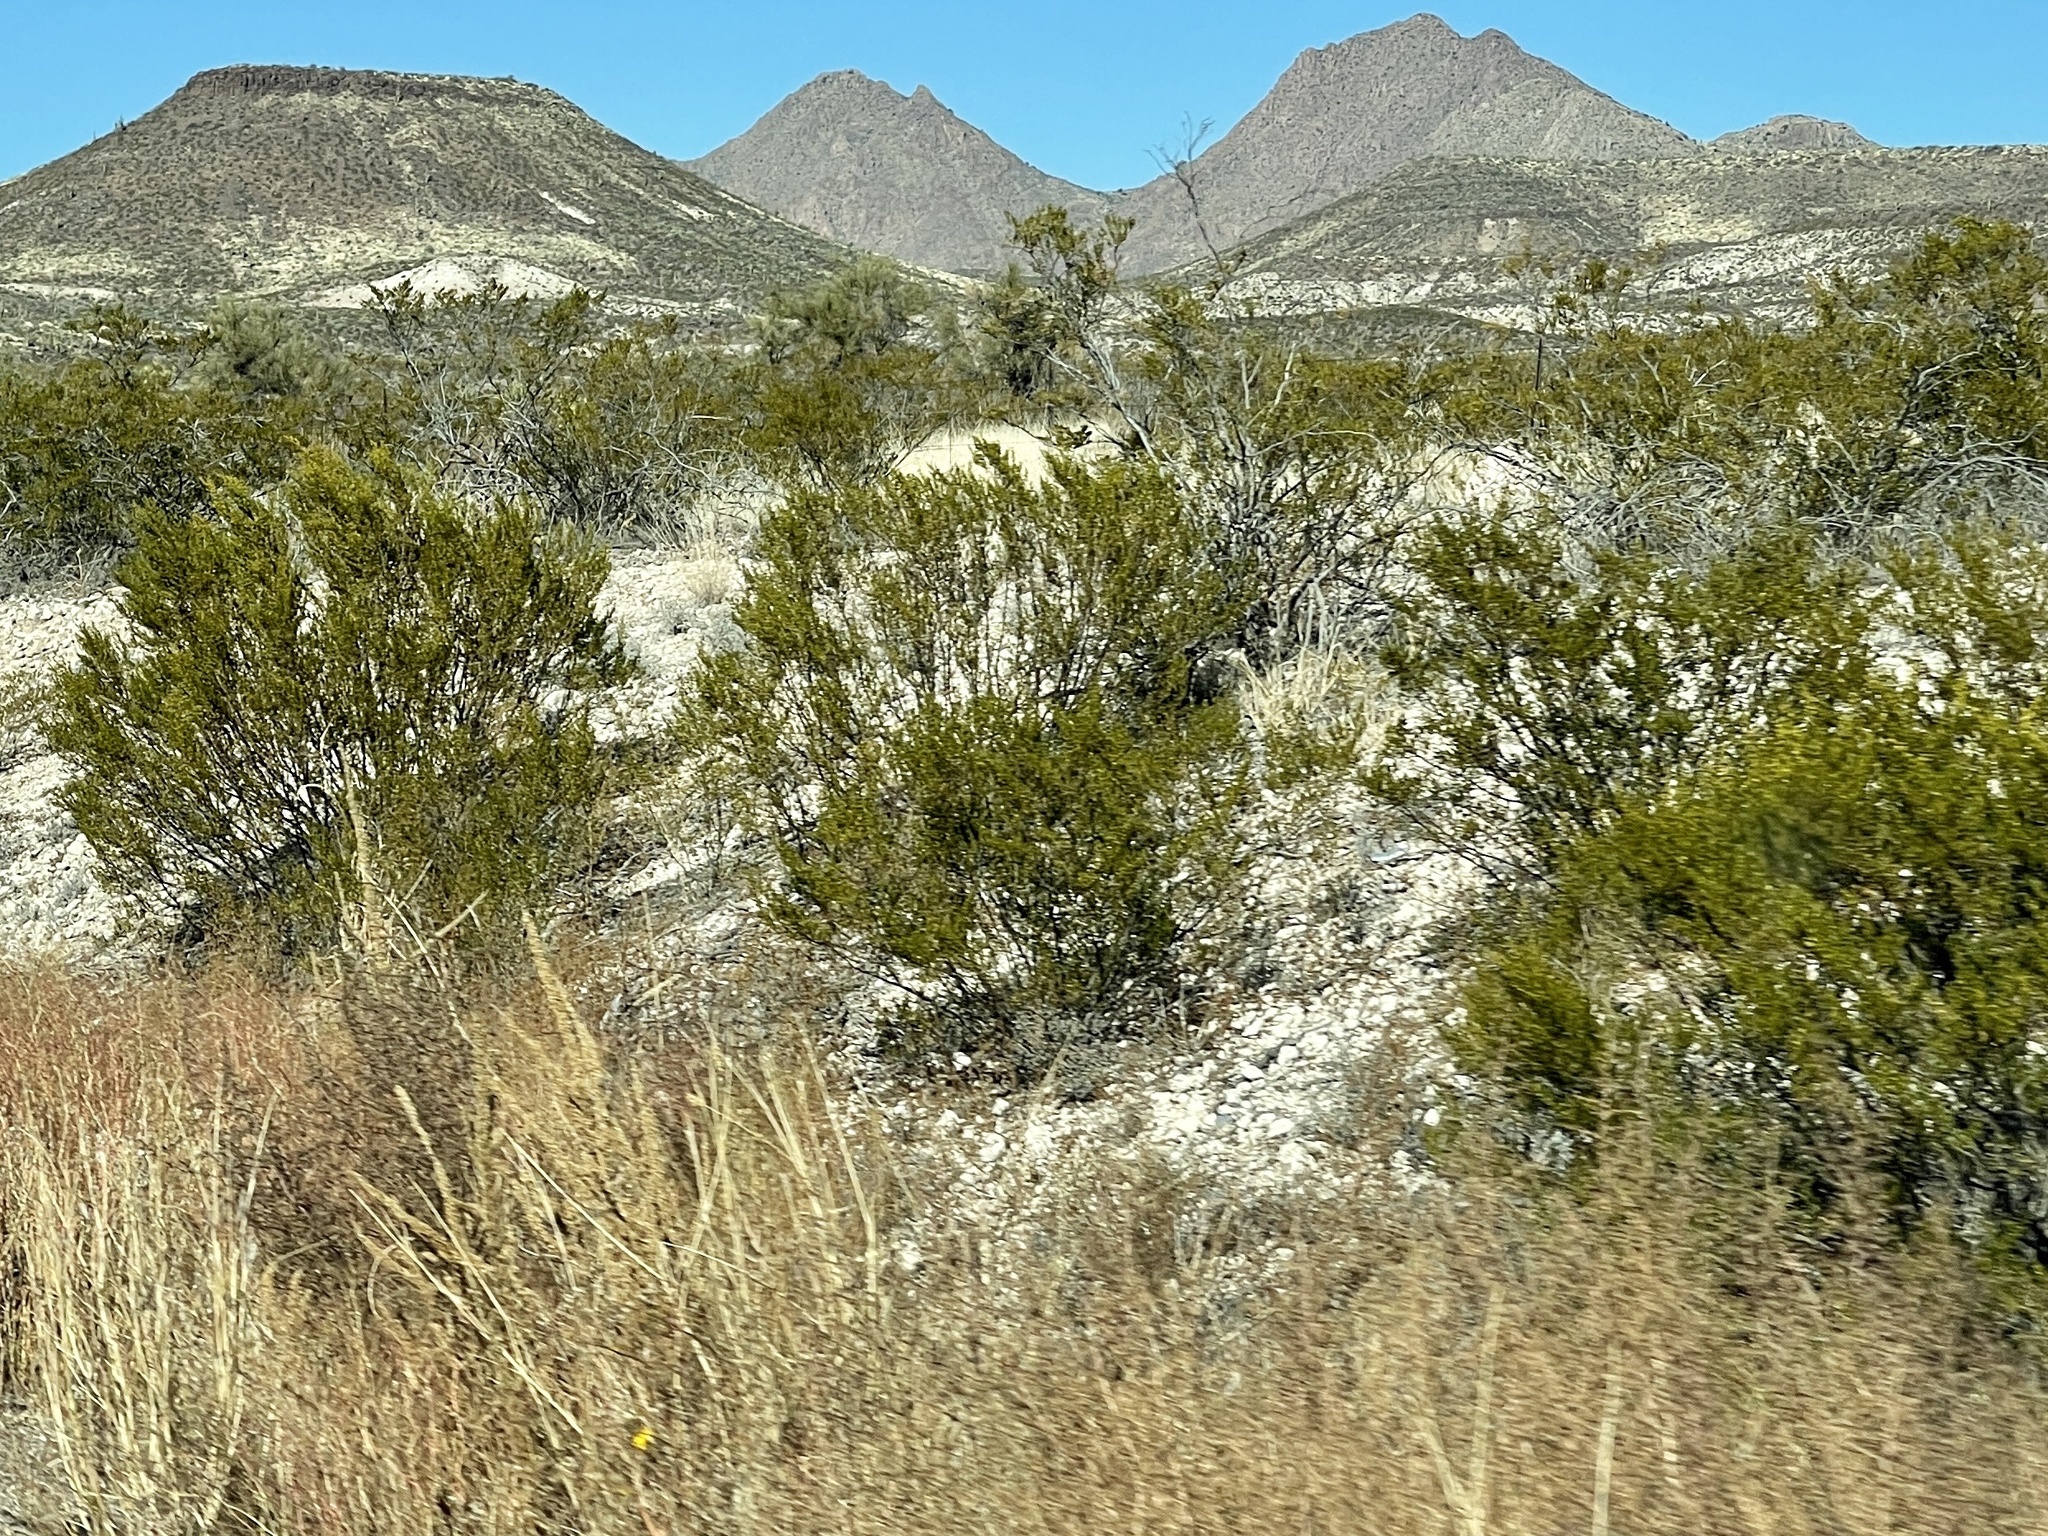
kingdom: Plantae
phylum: Tracheophyta
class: Magnoliopsida
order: Zygophyllales
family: Zygophyllaceae
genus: Larrea
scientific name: Larrea tridentata
